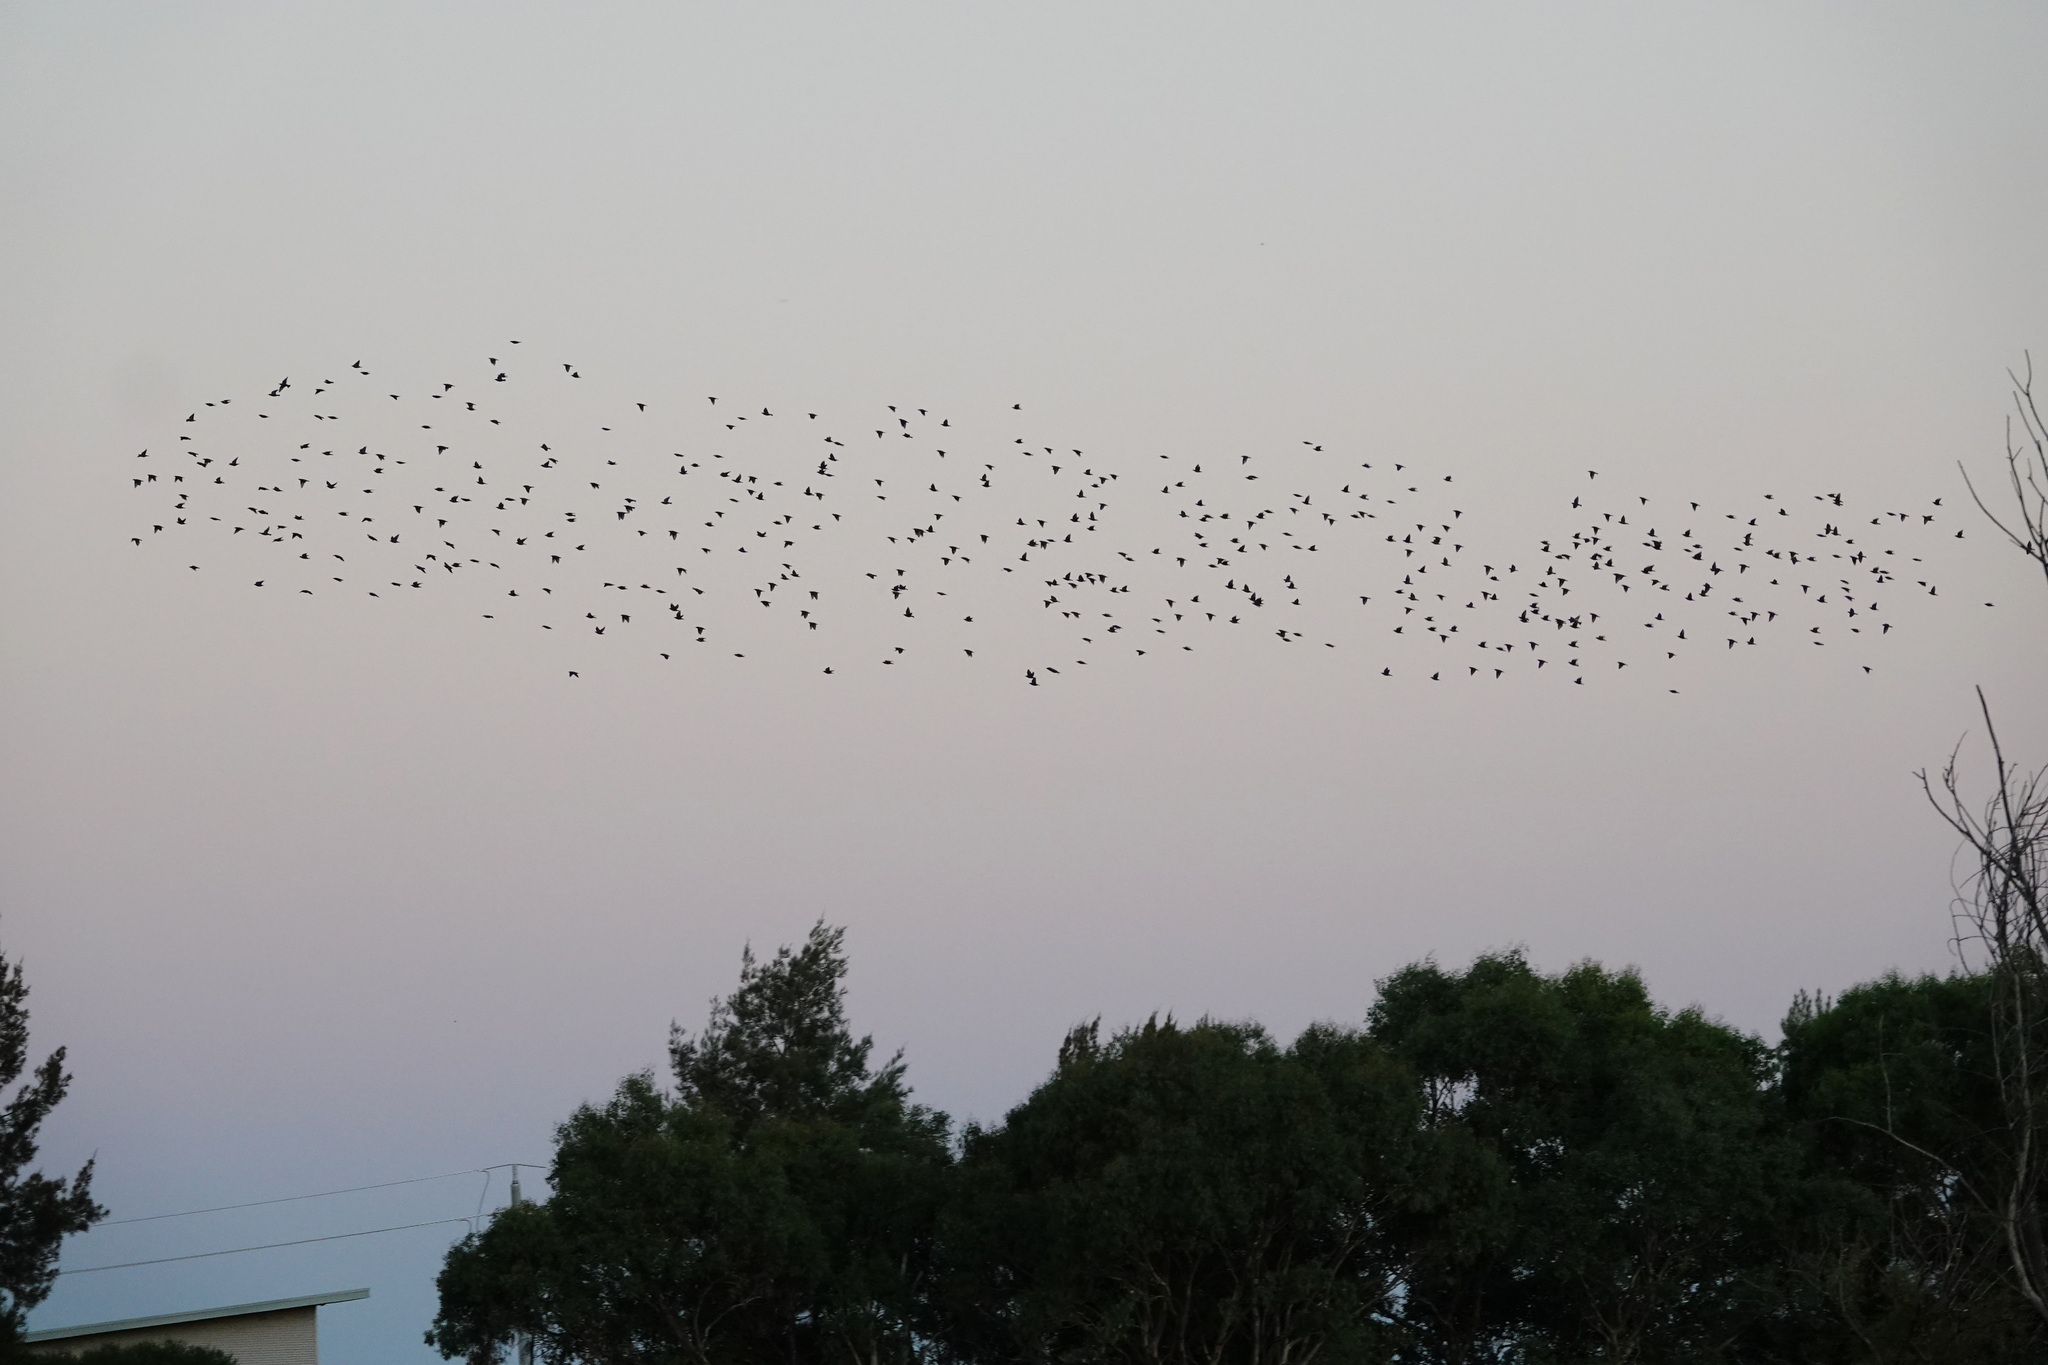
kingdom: Animalia
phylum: Chordata
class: Aves
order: Passeriformes
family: Sturnidae
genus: Sturnus
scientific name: Sturnus vulgaris
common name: Common starling
